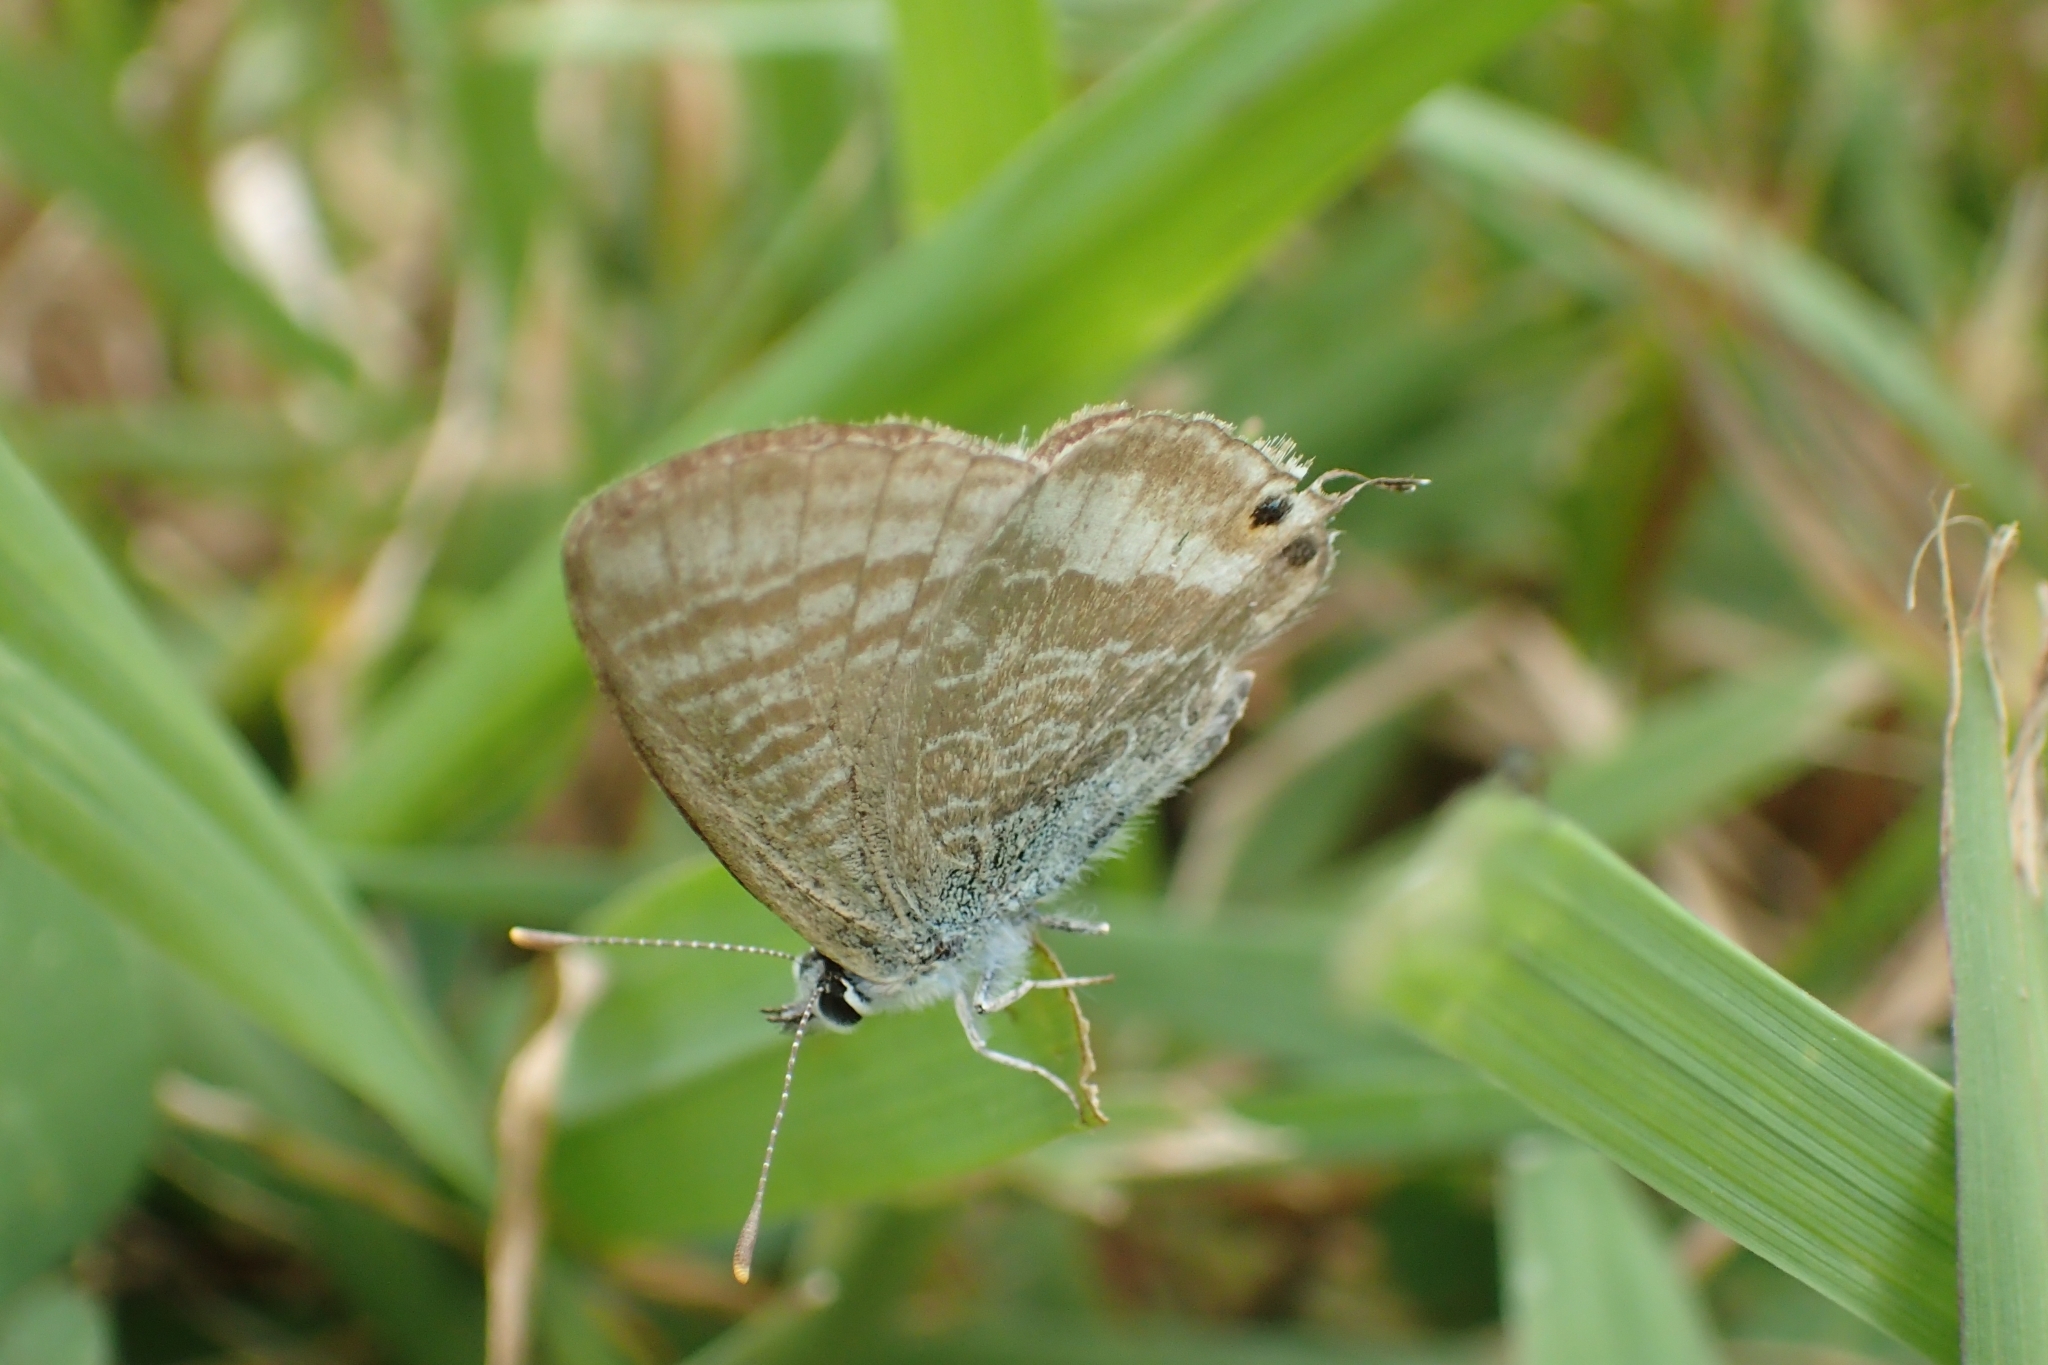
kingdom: Animalia
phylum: Arthropoda
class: Insecta
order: Lepidoptera
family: Lycaenidae
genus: Lampides
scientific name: Lampides boeticus
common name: Long-tailed blue
